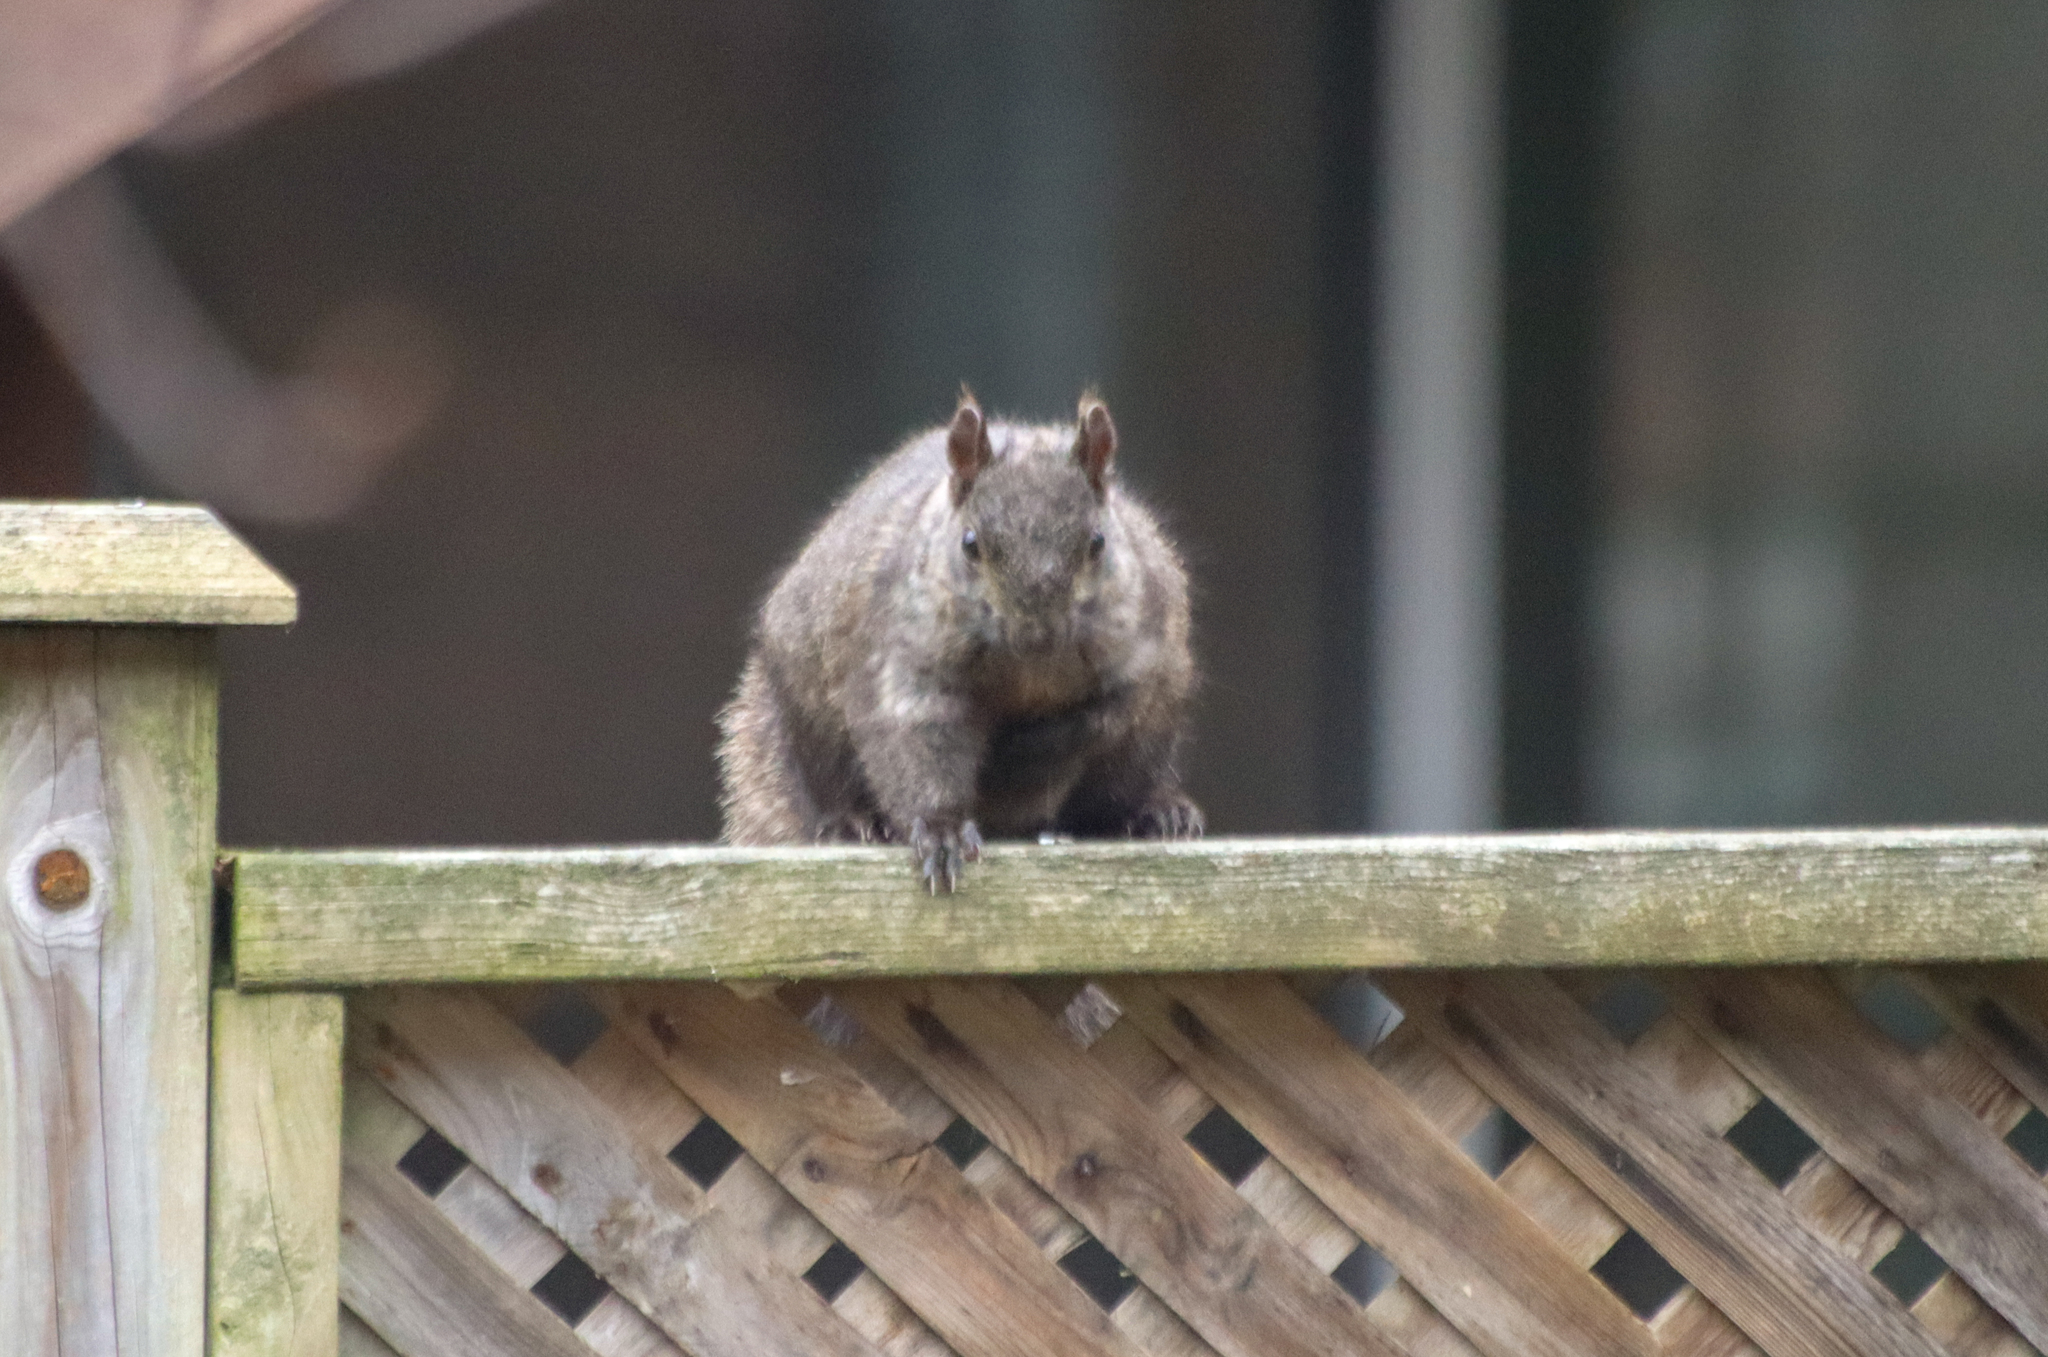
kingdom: Animalia
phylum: Chordata
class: Mammalia
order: Rodentia
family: Sciuridae
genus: Sciurus
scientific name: Sciurus carolinensis
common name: Eastern gray squirrel
